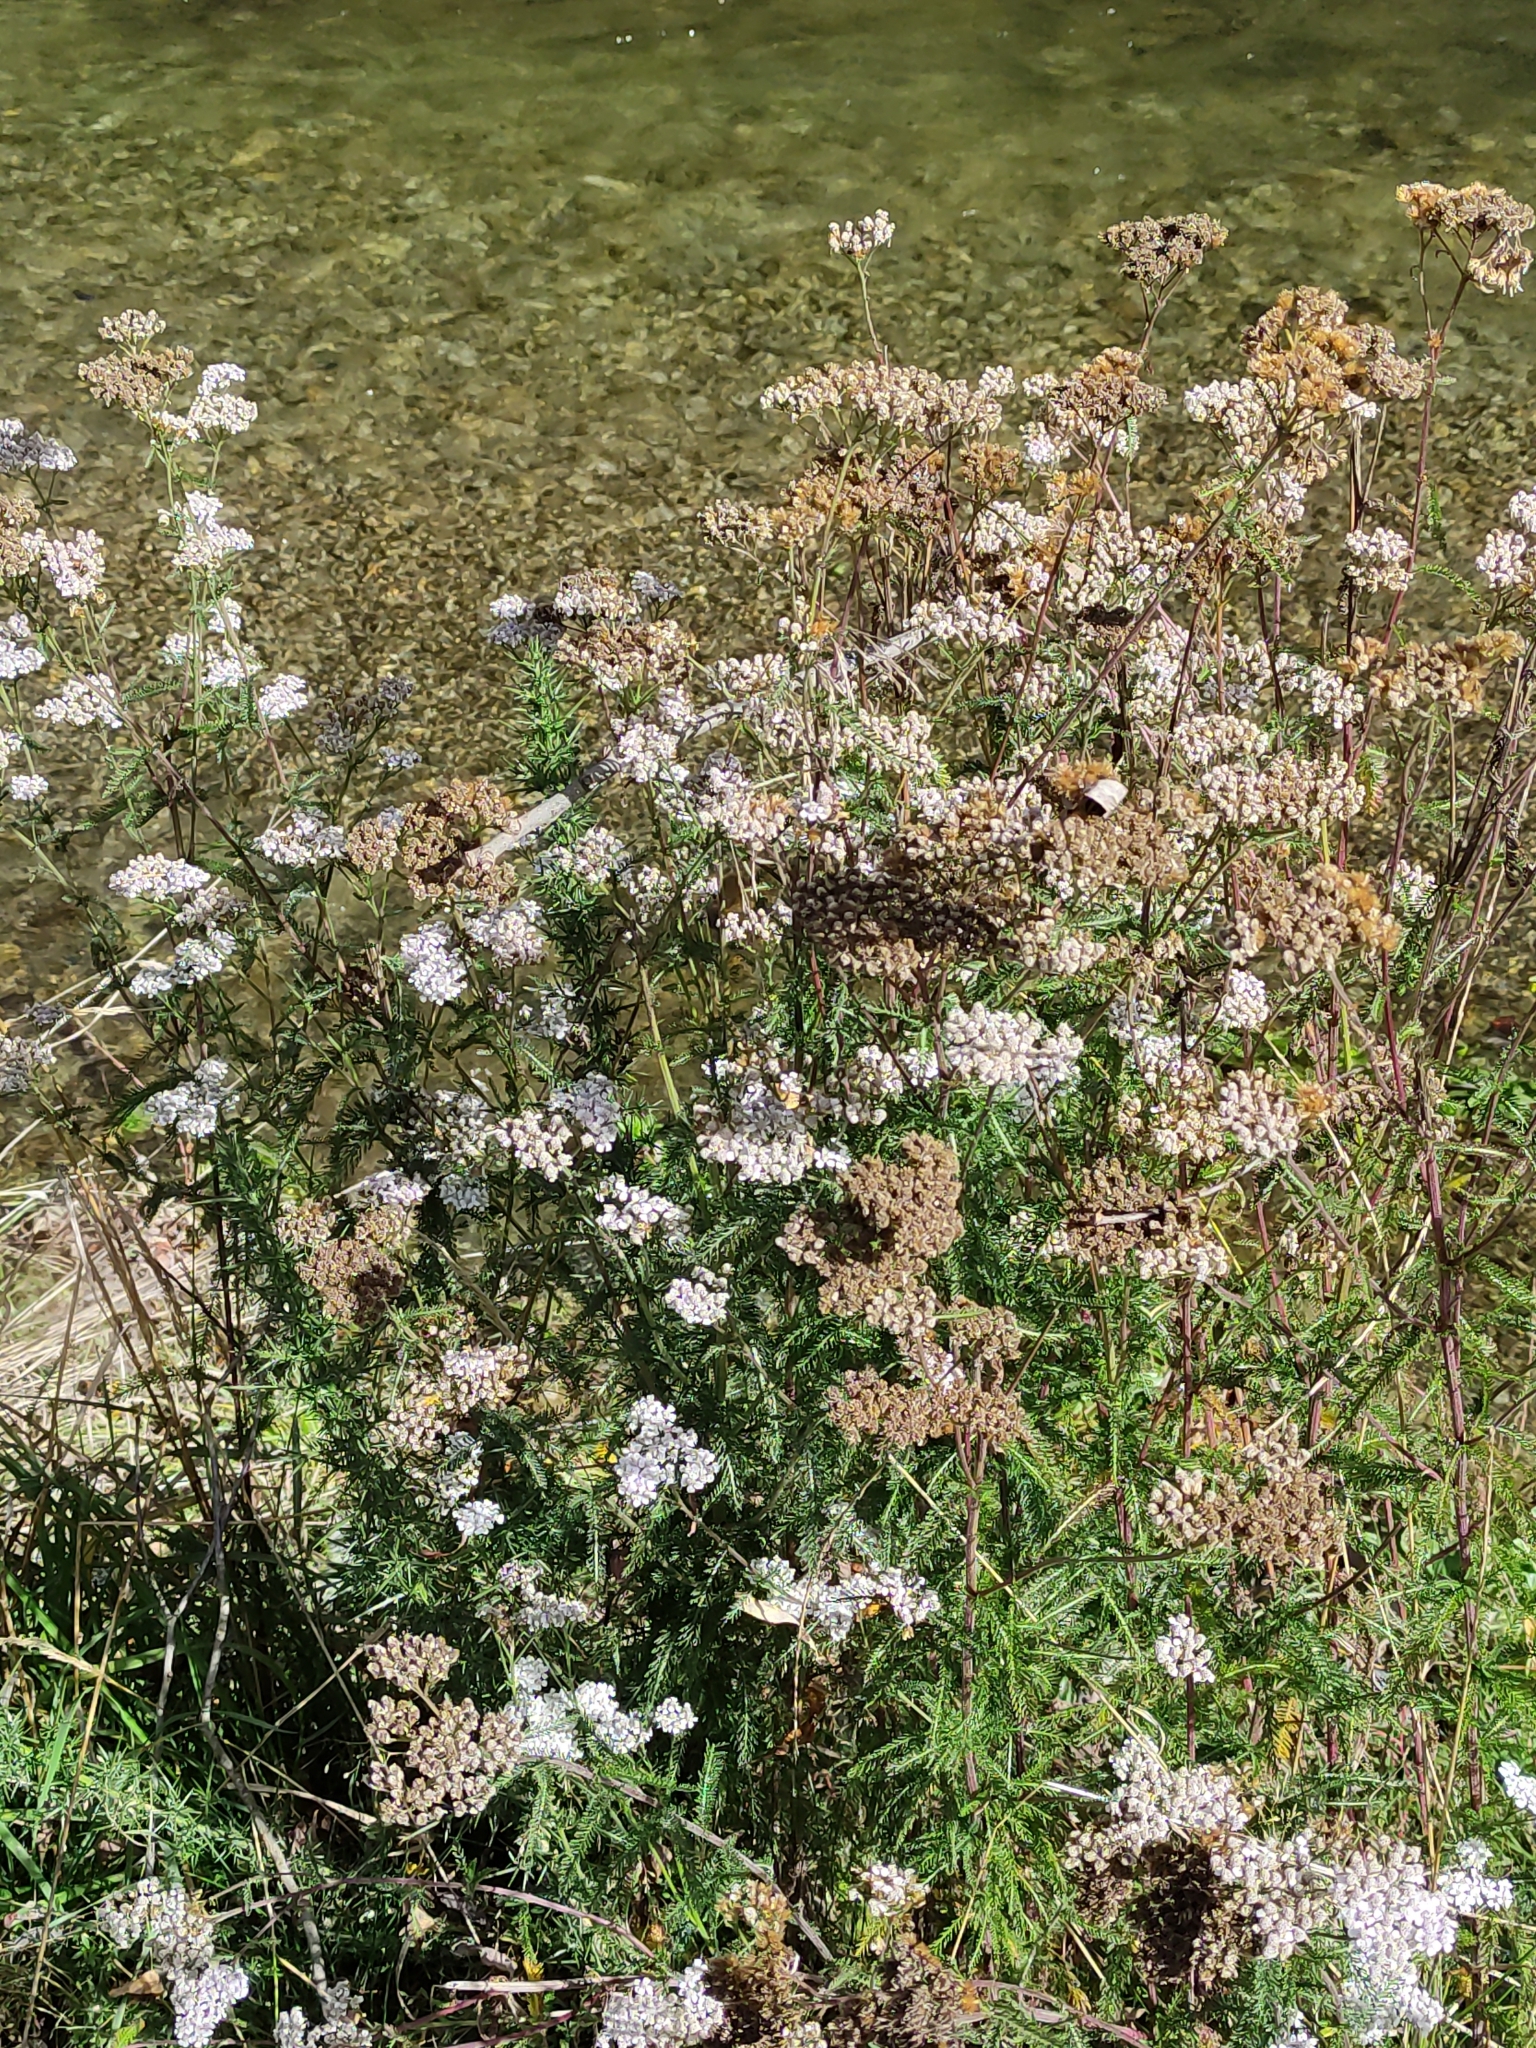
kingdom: Plantae
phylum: Tracheophyta
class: Magnoliopsida
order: Asterales
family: Asteraceae
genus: Achillea
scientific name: Achillea millefolium
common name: Yarrow
